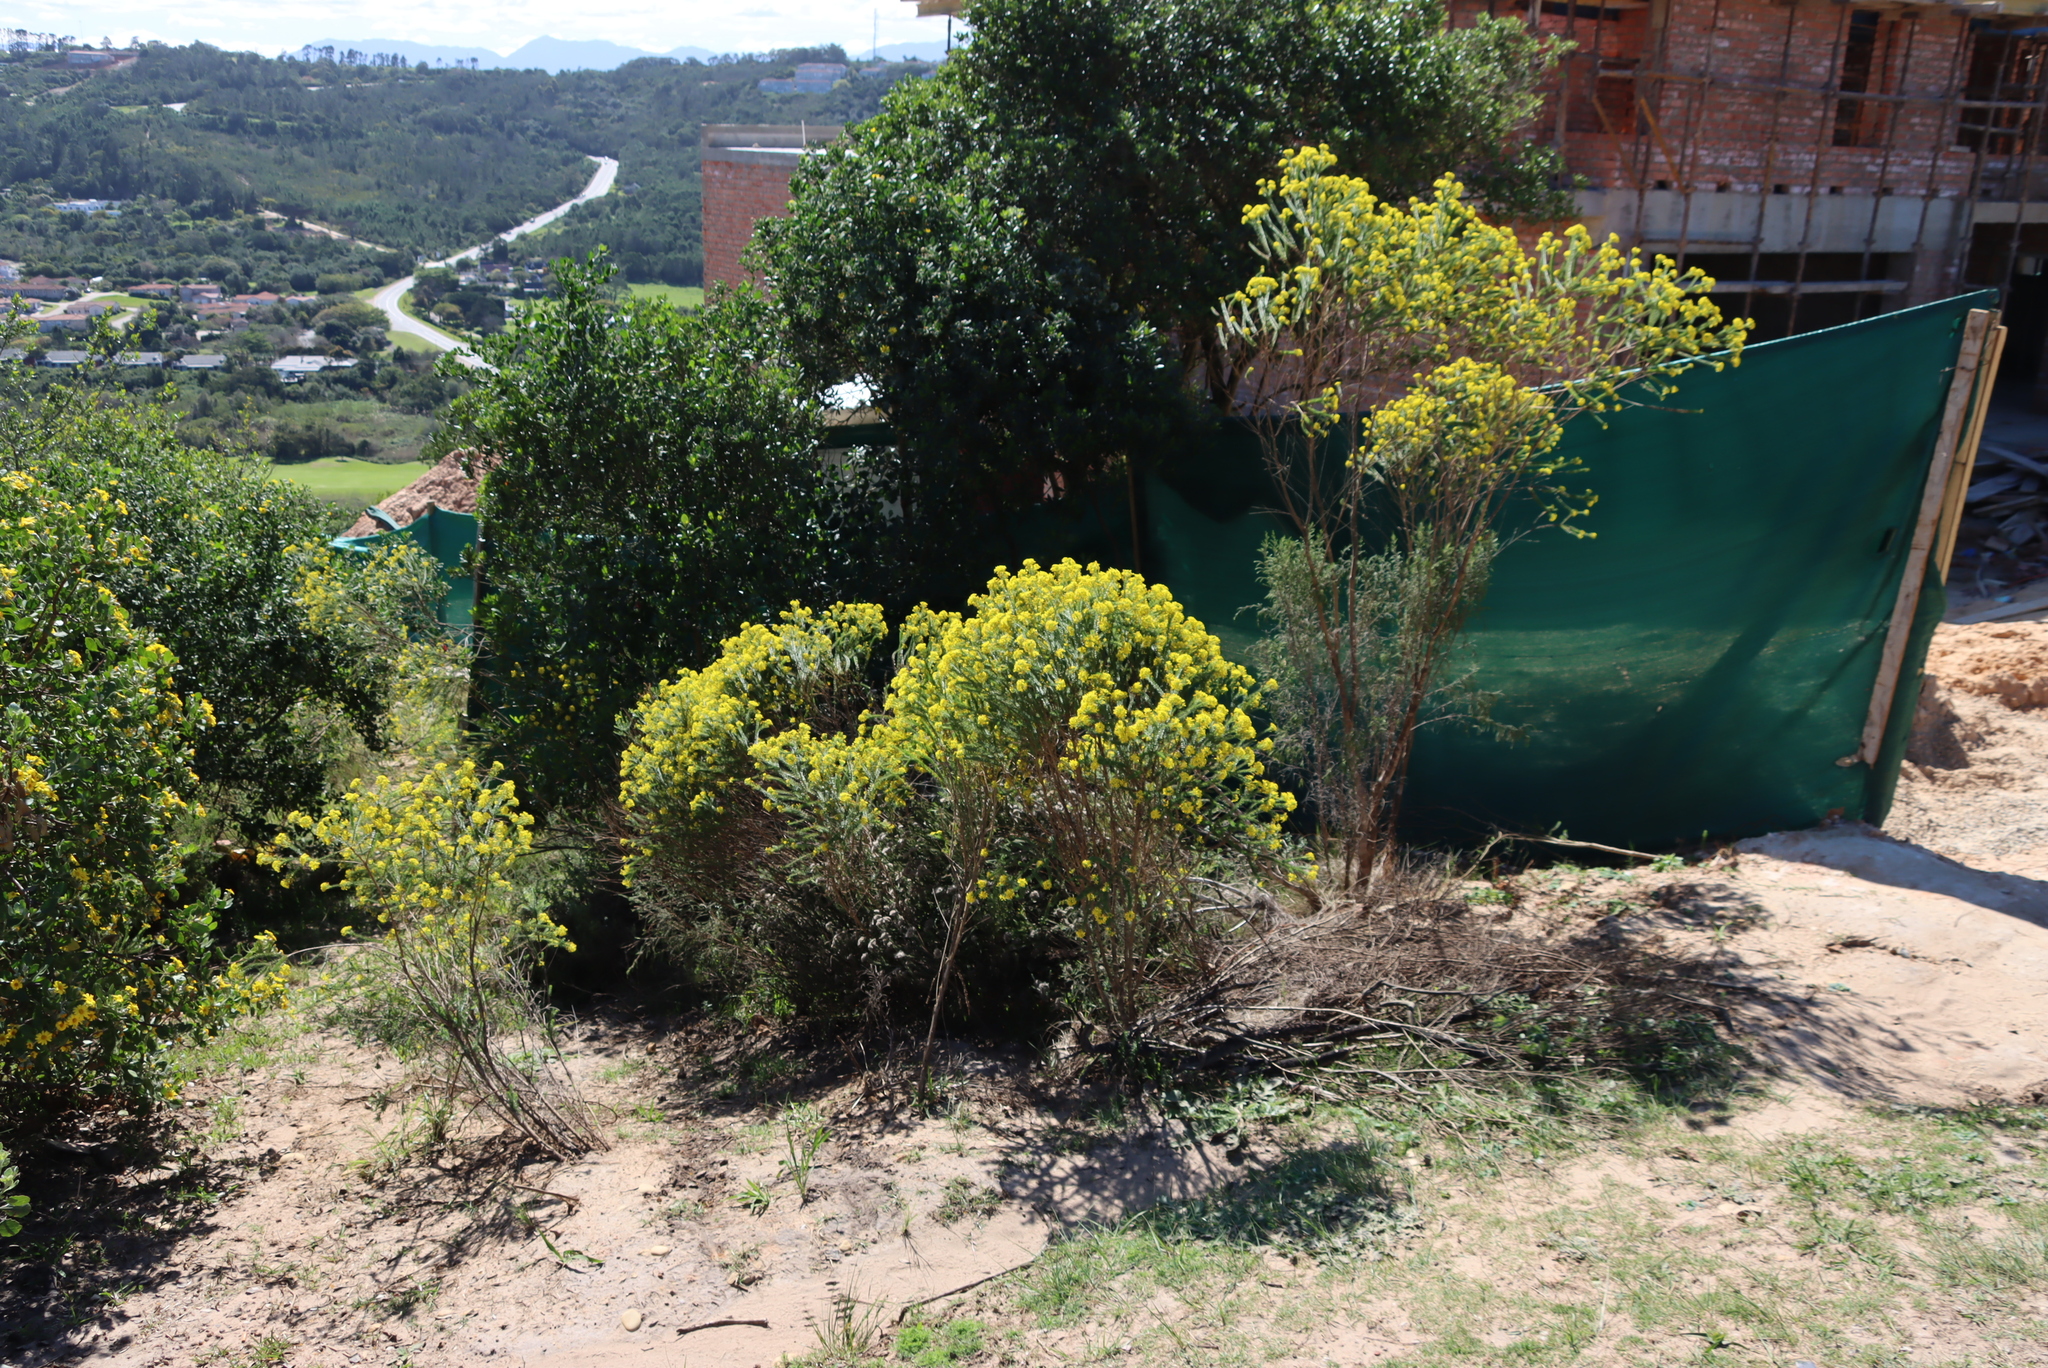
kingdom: Plantae
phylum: Tracheophyta
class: Magnoliopsida
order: Asterales
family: Asteraceae
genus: Euryops
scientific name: Euryops virgineus
